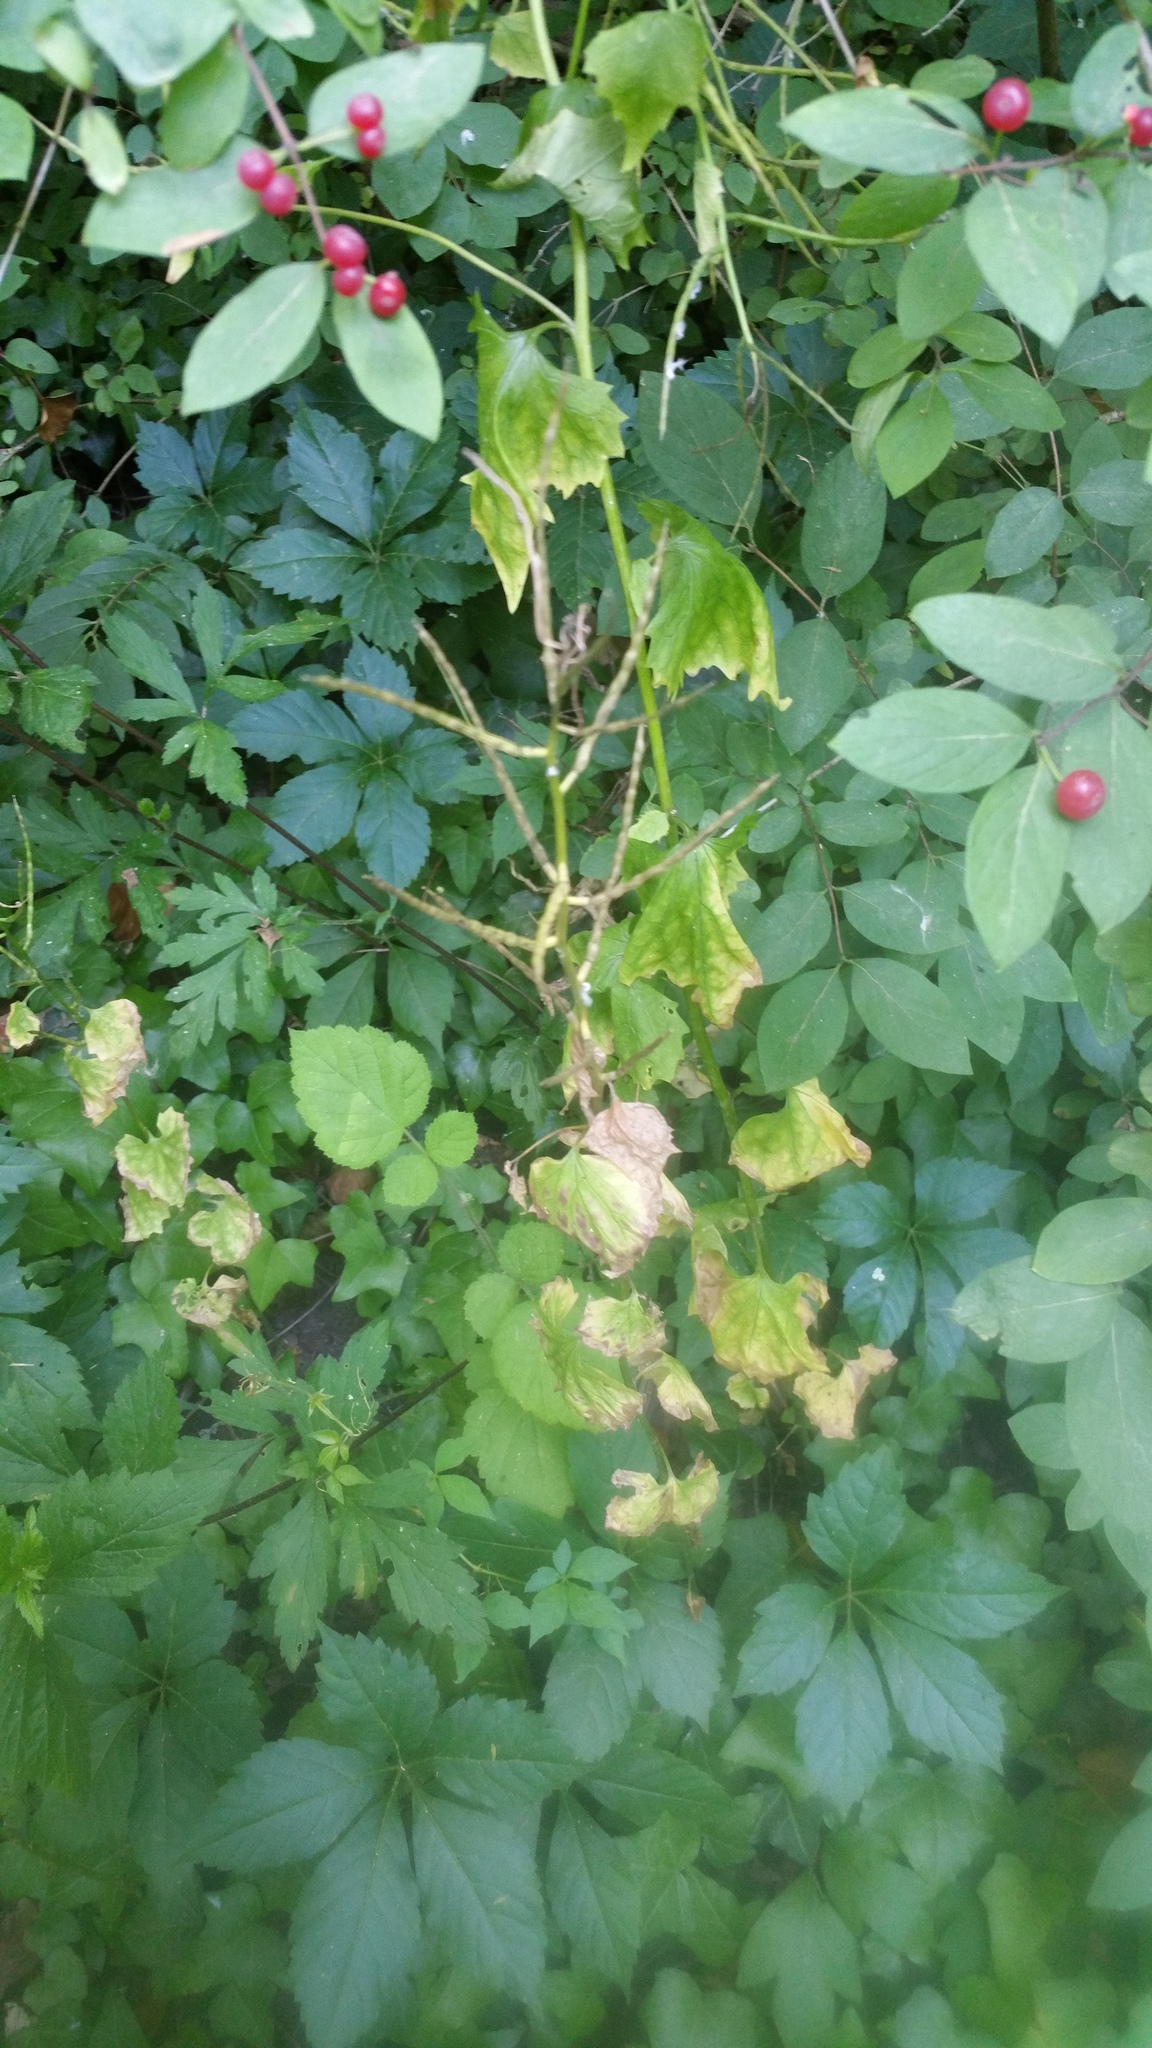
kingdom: Plantae
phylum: Tracheophyta
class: Magnoliopsida
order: Brassicales
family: Brassicaceae
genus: Alliaria
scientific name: Alliaria petiolata
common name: Garlic mustard
